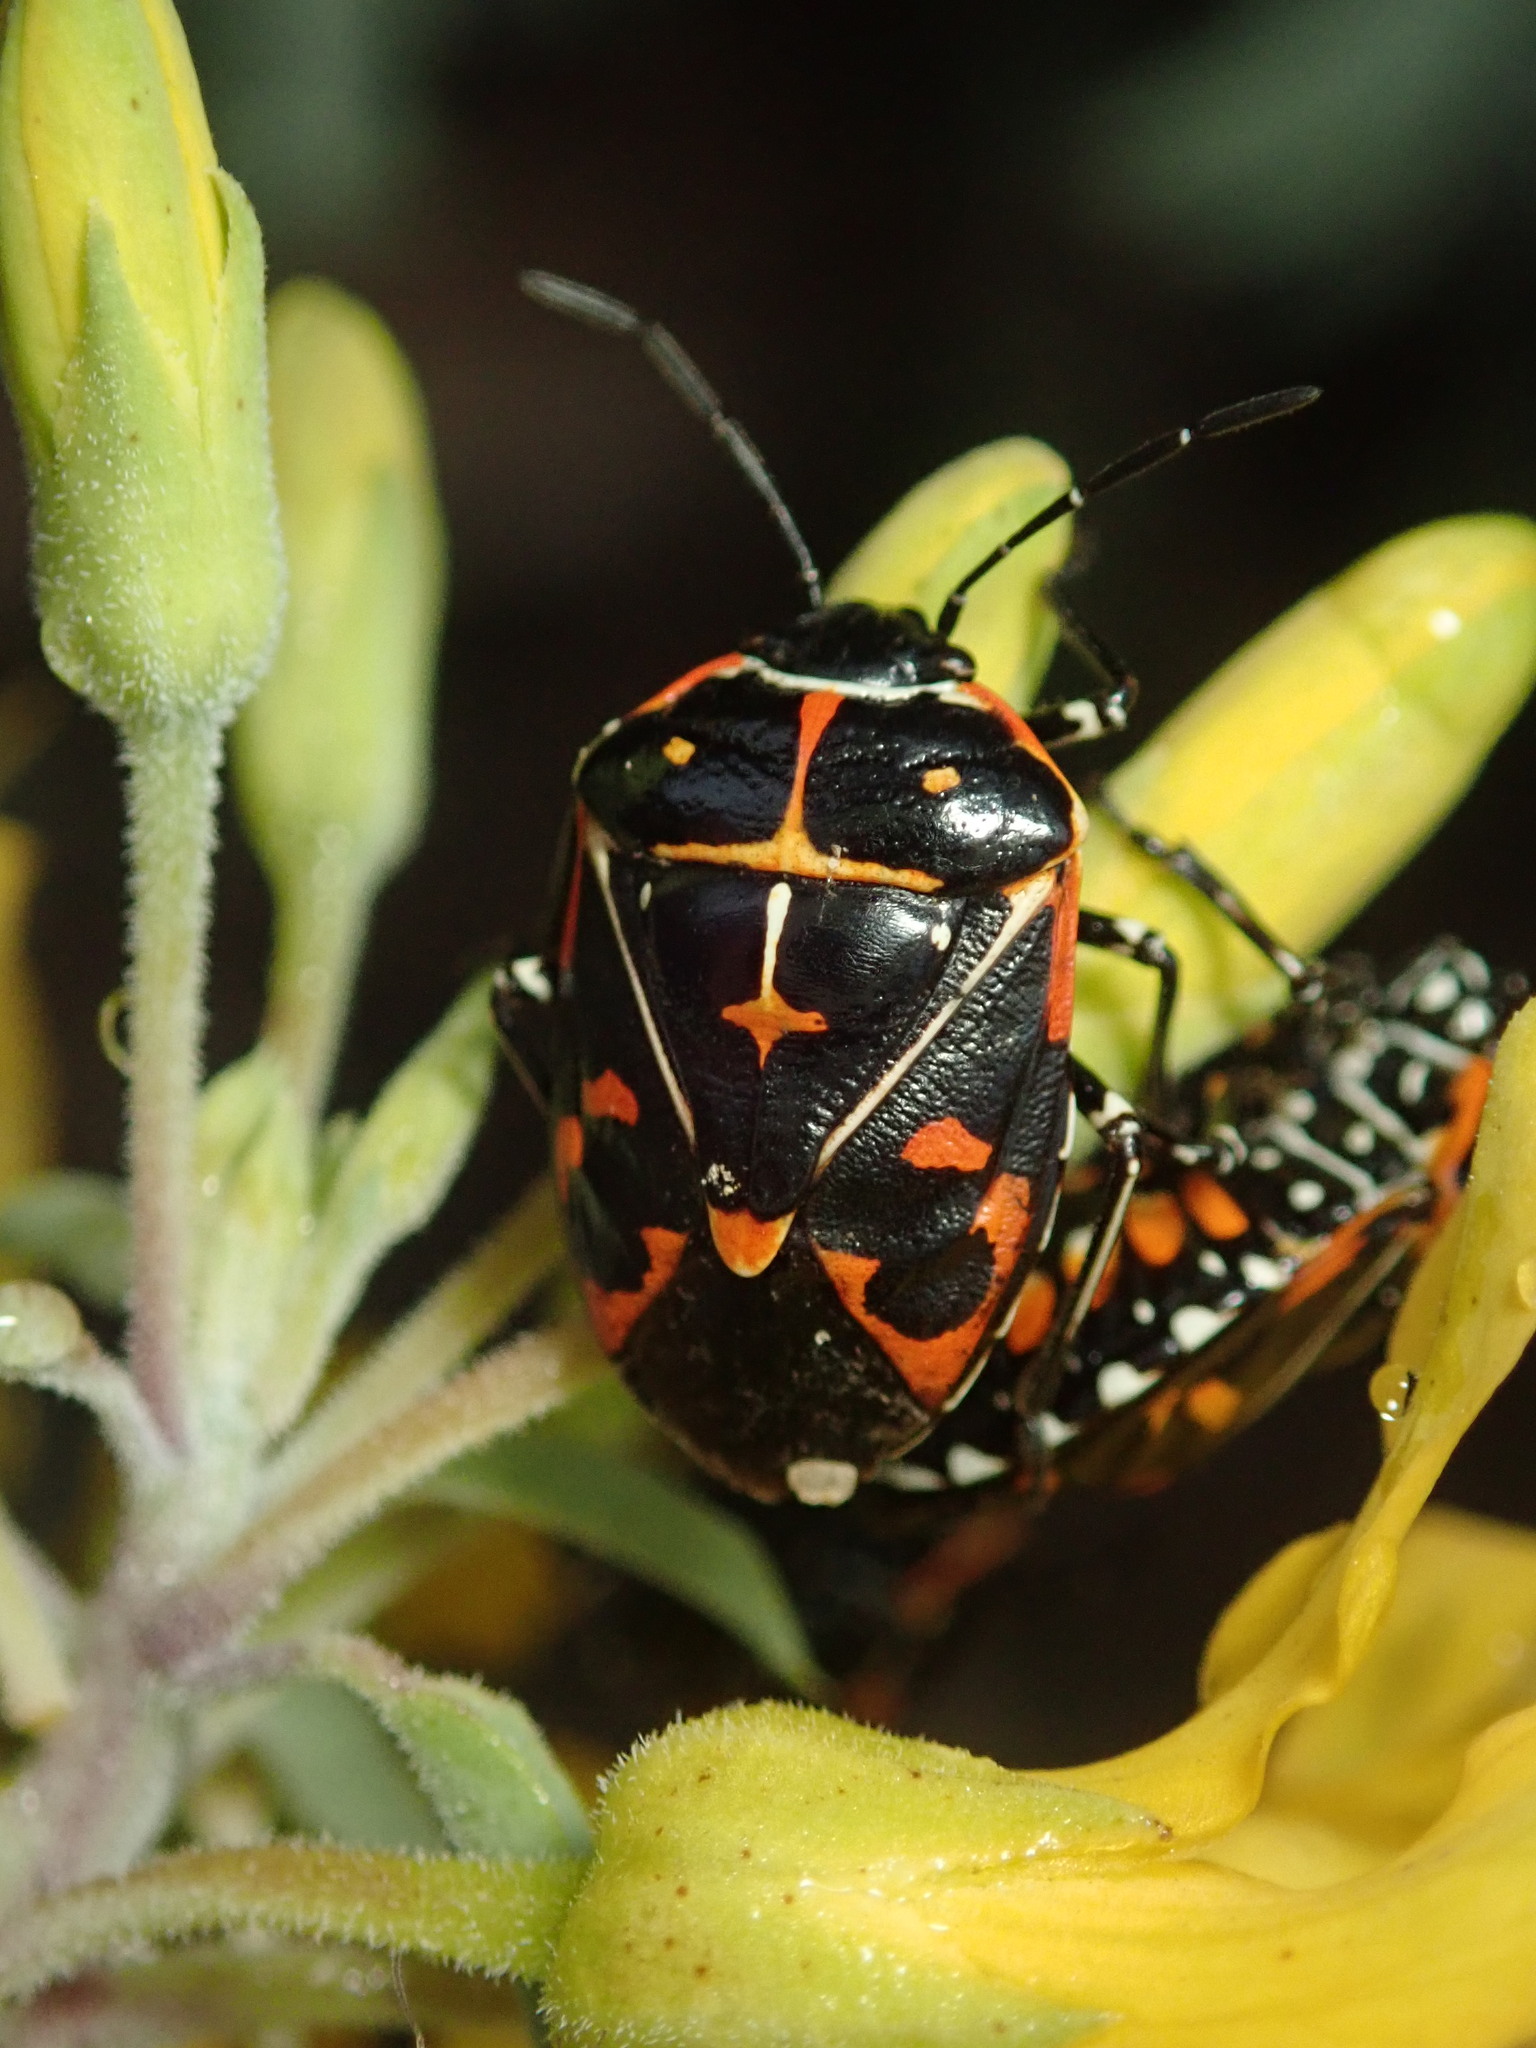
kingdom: Animalia
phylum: Arthropoda
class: Insecta
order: Hemiptera
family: Pentatomidae
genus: Murgantia
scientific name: Murgantia histrionica
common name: Harlequin bug
